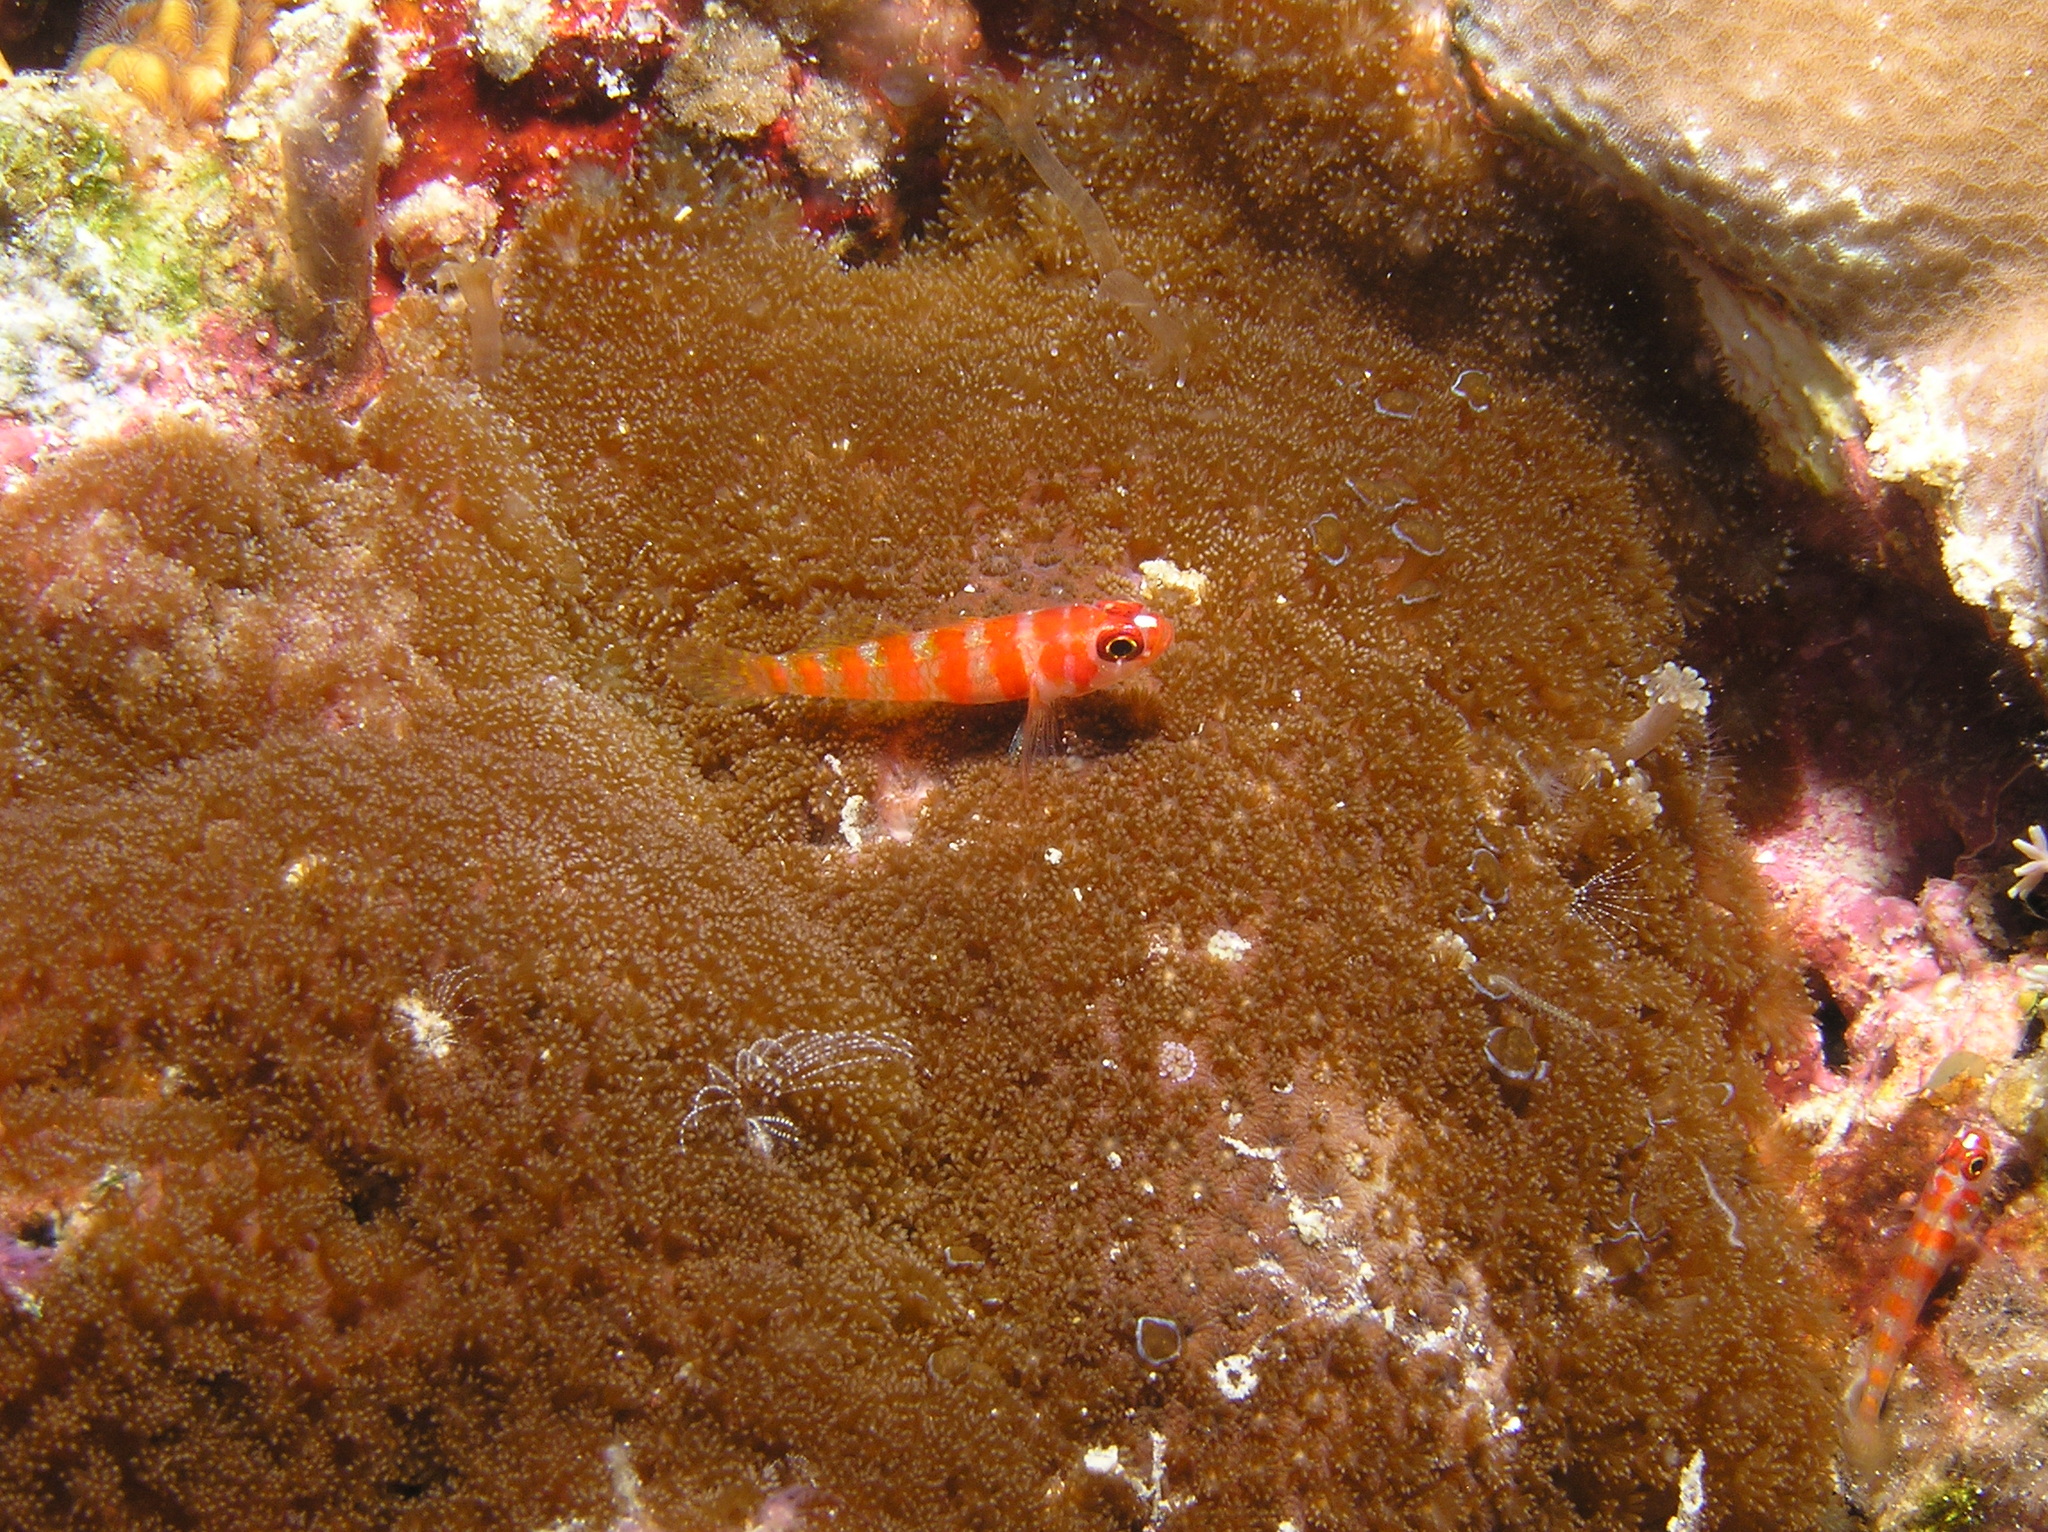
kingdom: Animalia
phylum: Chordata
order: Perciformes
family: Gobiidae
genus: Trimma
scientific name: Trimma cana
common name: Candycane pygmy goby
